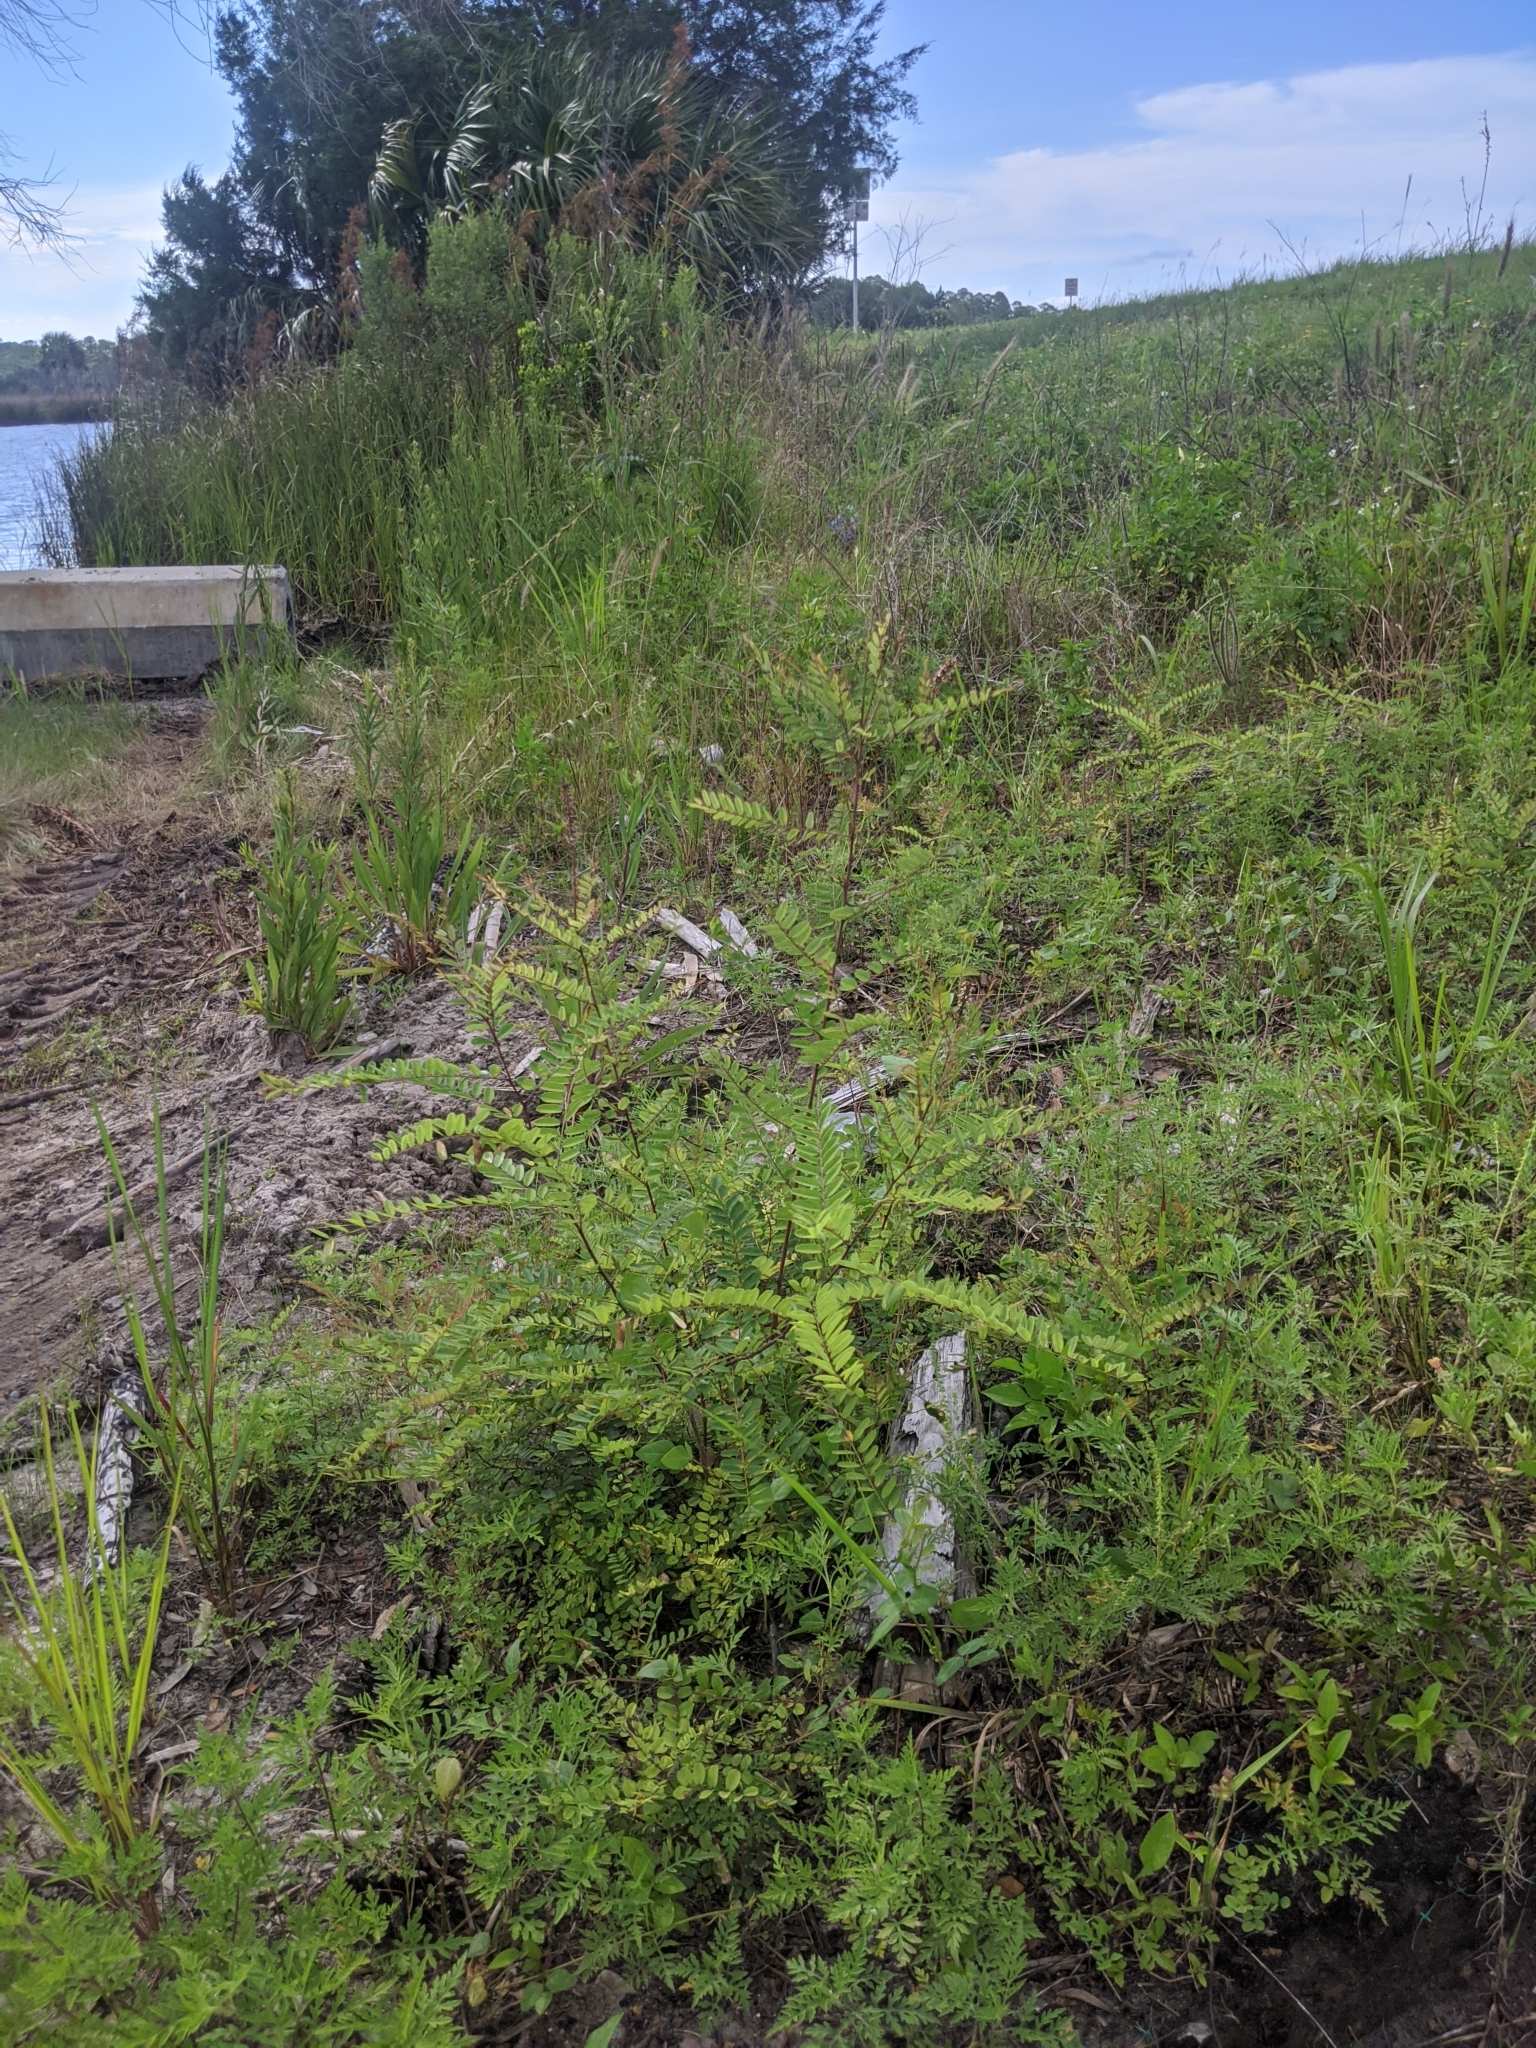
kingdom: Plantae
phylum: Tracheophyta
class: Magnoliopsida
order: Fabales
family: Fabaceae
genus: Amorpha
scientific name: Amorpha herbacea
